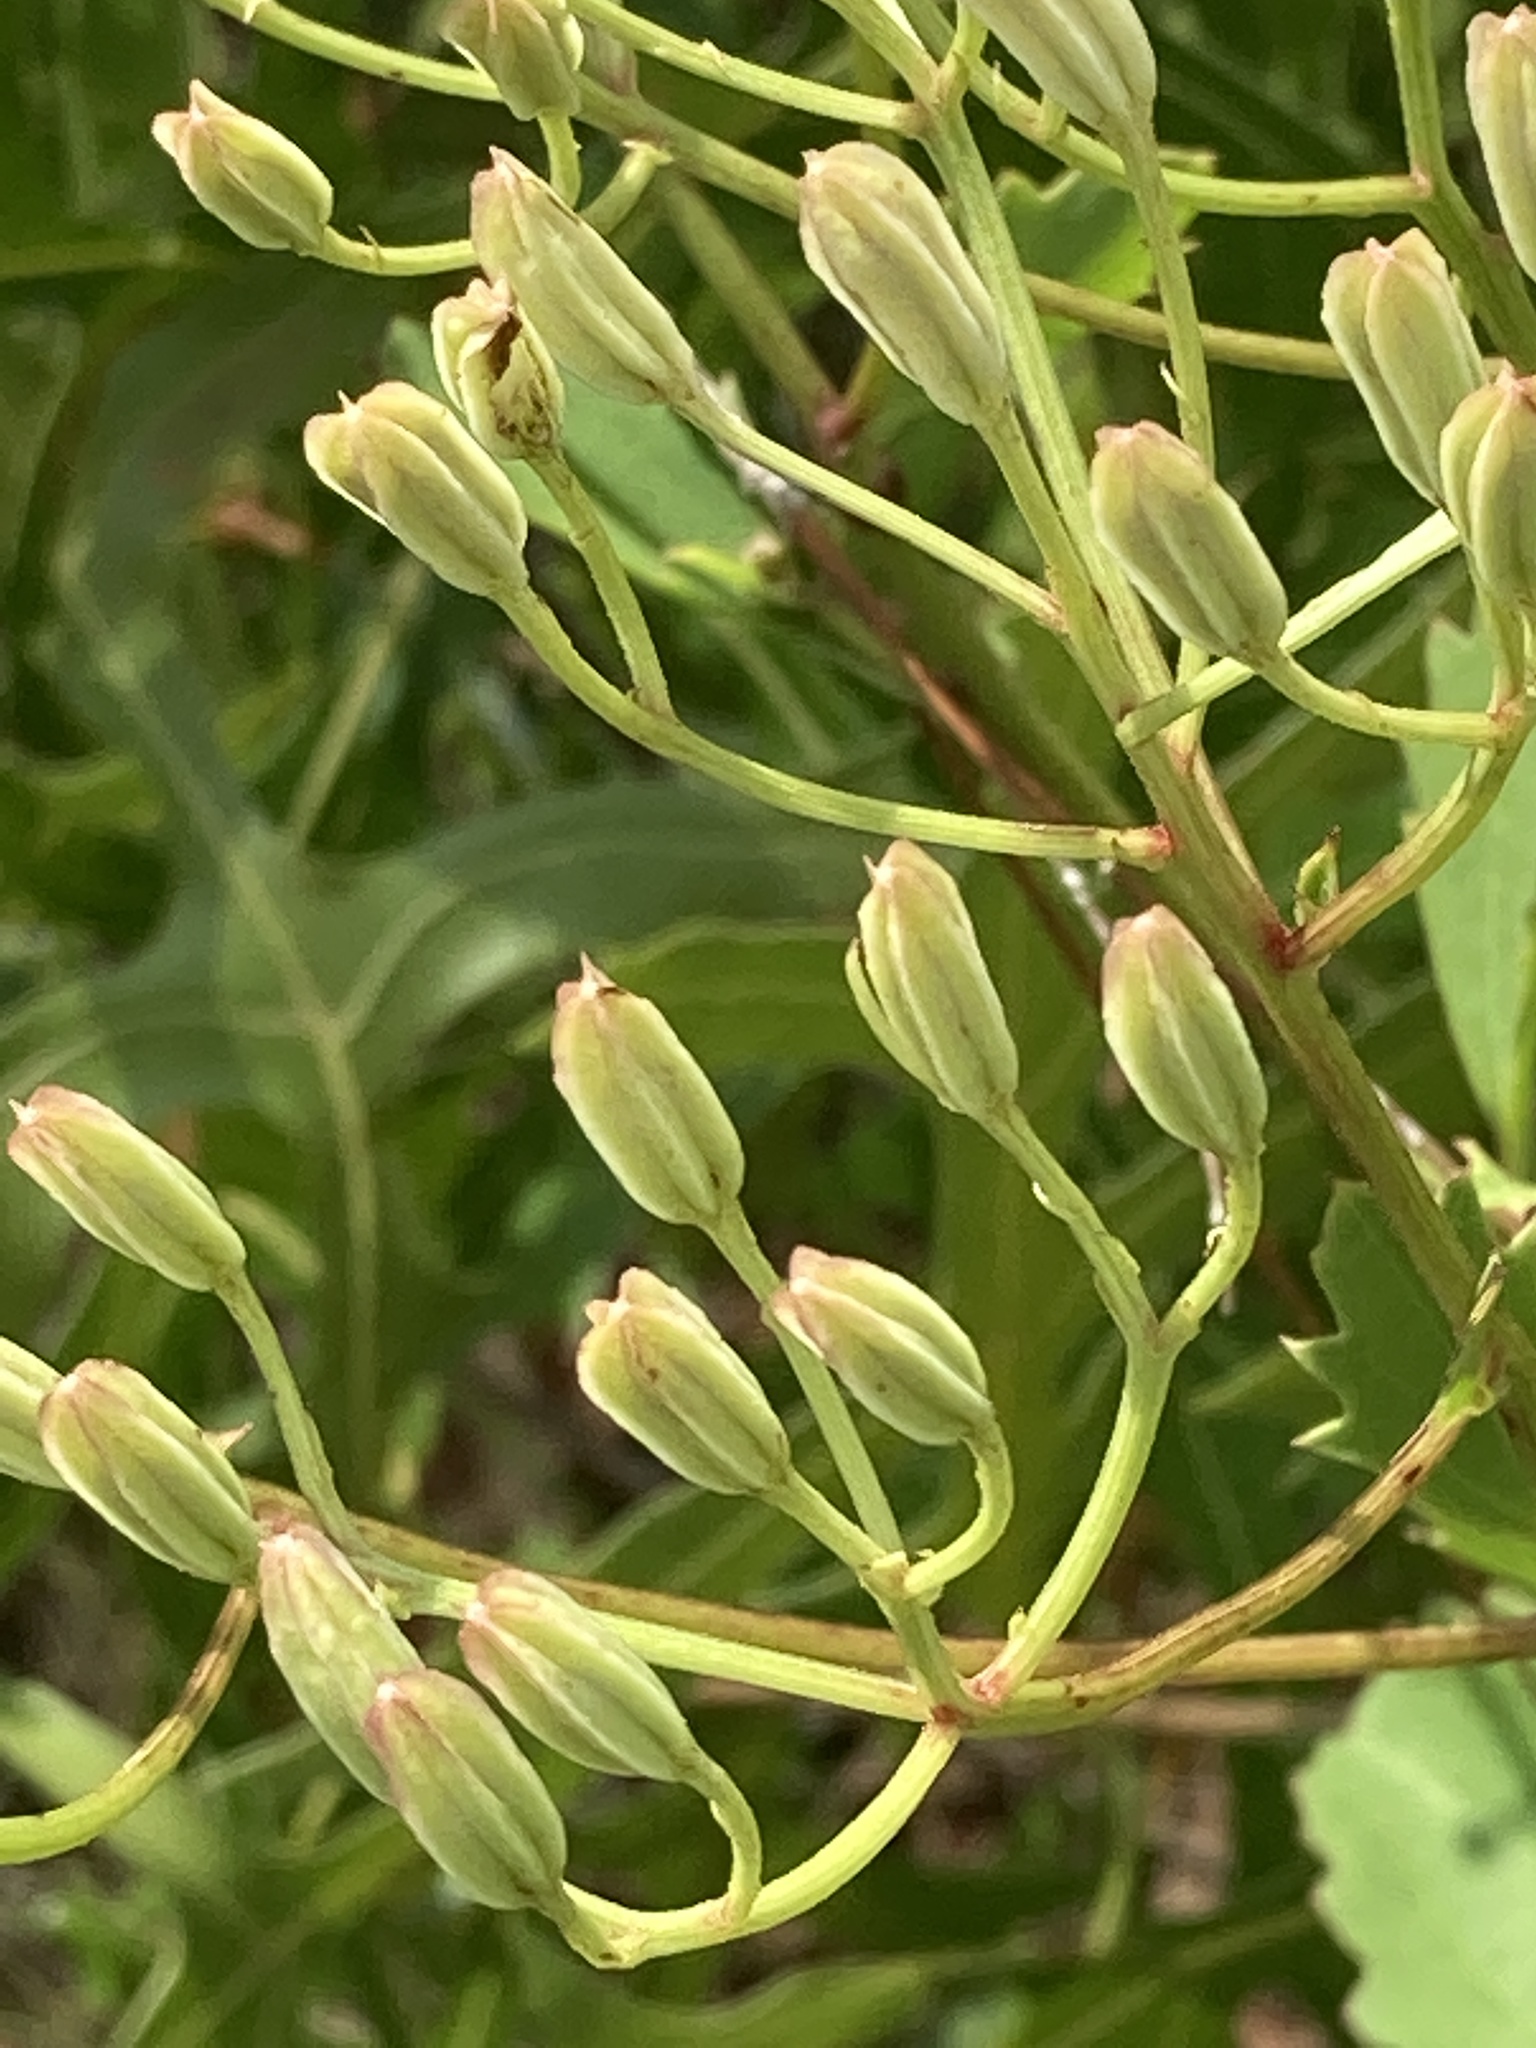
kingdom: Plantae
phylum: Tracheophyta
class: Magnoliopsida
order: Asterales
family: Asteraceae
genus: Arnoglossum
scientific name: Arnoglossum floridanum
